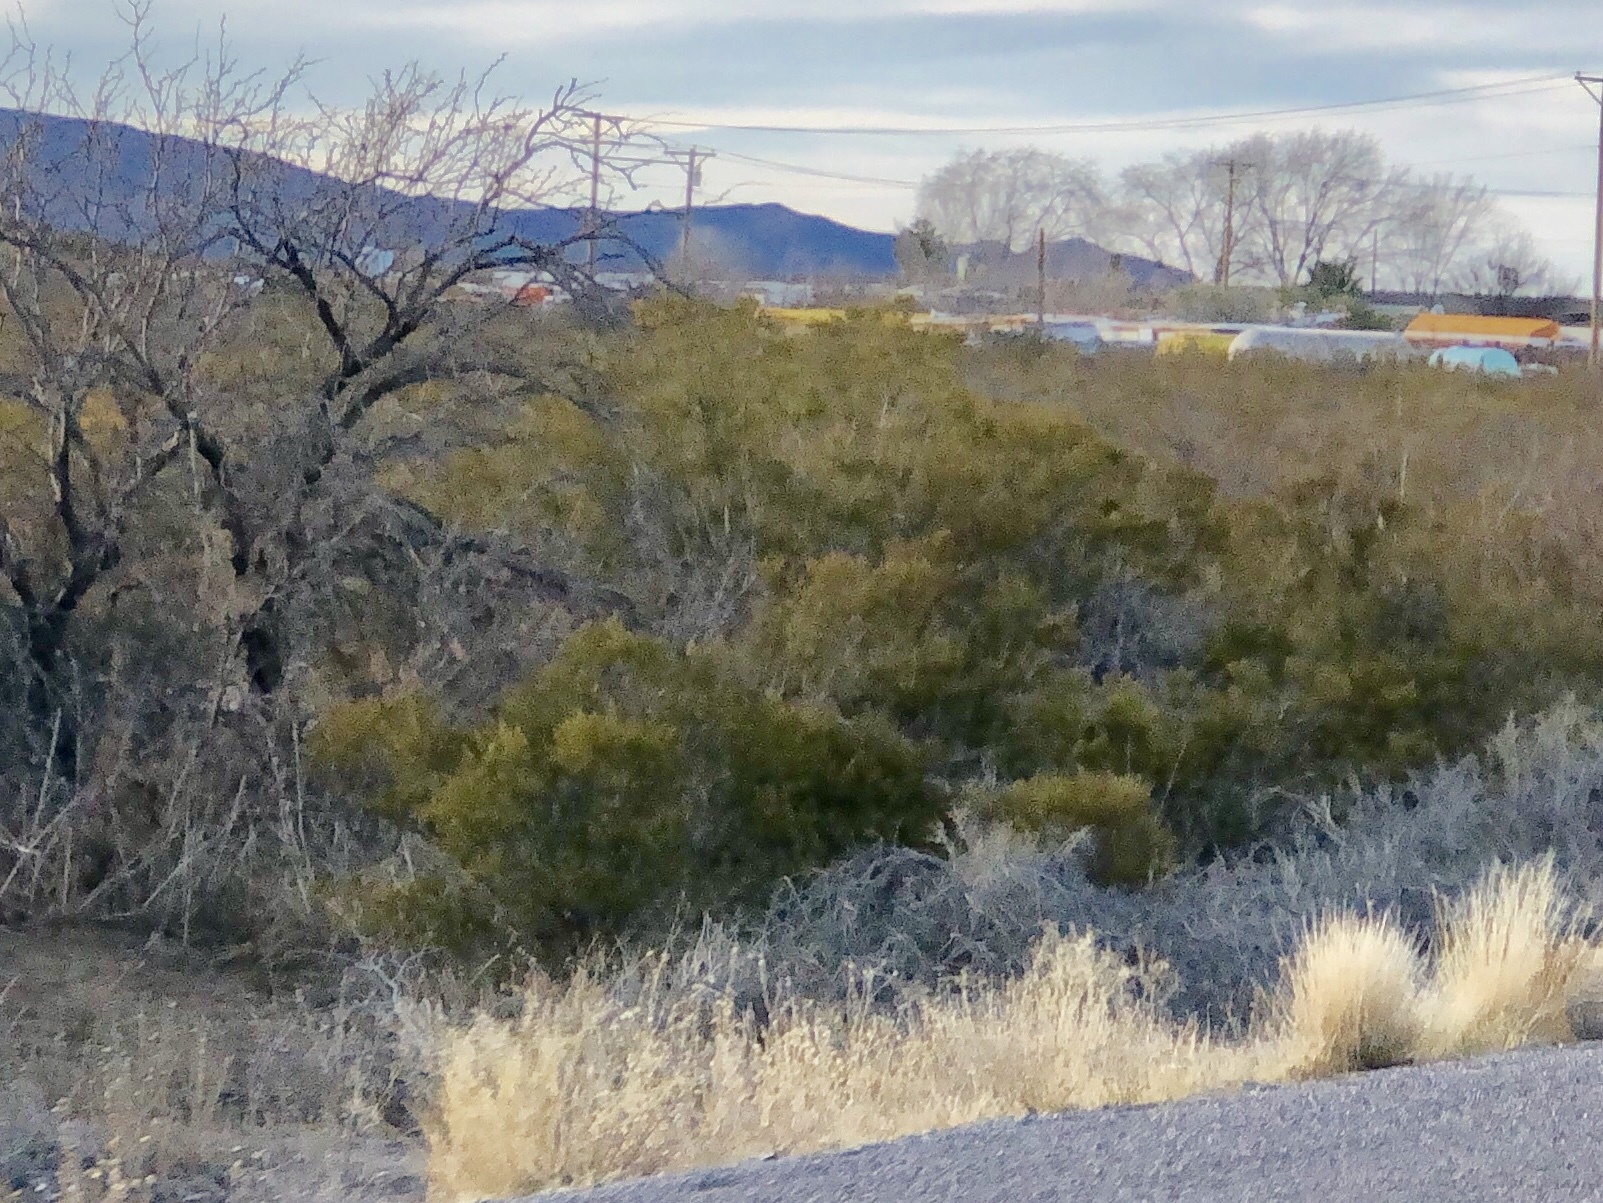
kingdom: Plantae
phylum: Tracheophyta
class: Magnoliopsida
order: Zygophyllales
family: Zygophyllaceae
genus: Larrea
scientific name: Larrea tridentata
